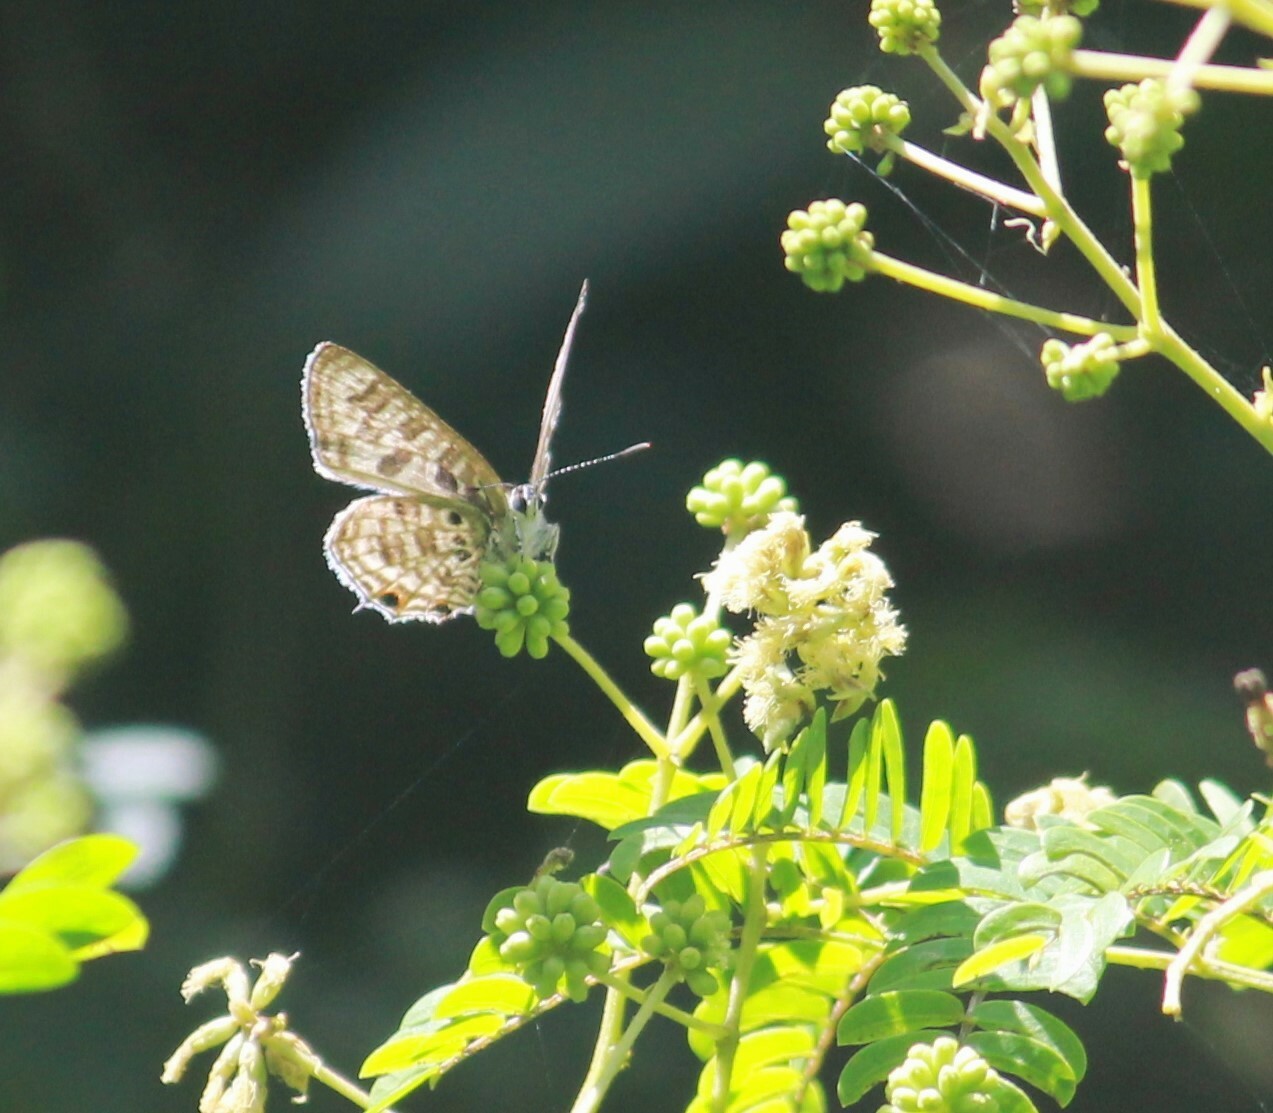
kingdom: Animalia
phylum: Arthropoda
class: Insecta
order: Lepidoptera
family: Lycaenidae
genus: Anthene
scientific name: Anthene larydas
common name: Forest hairtail
